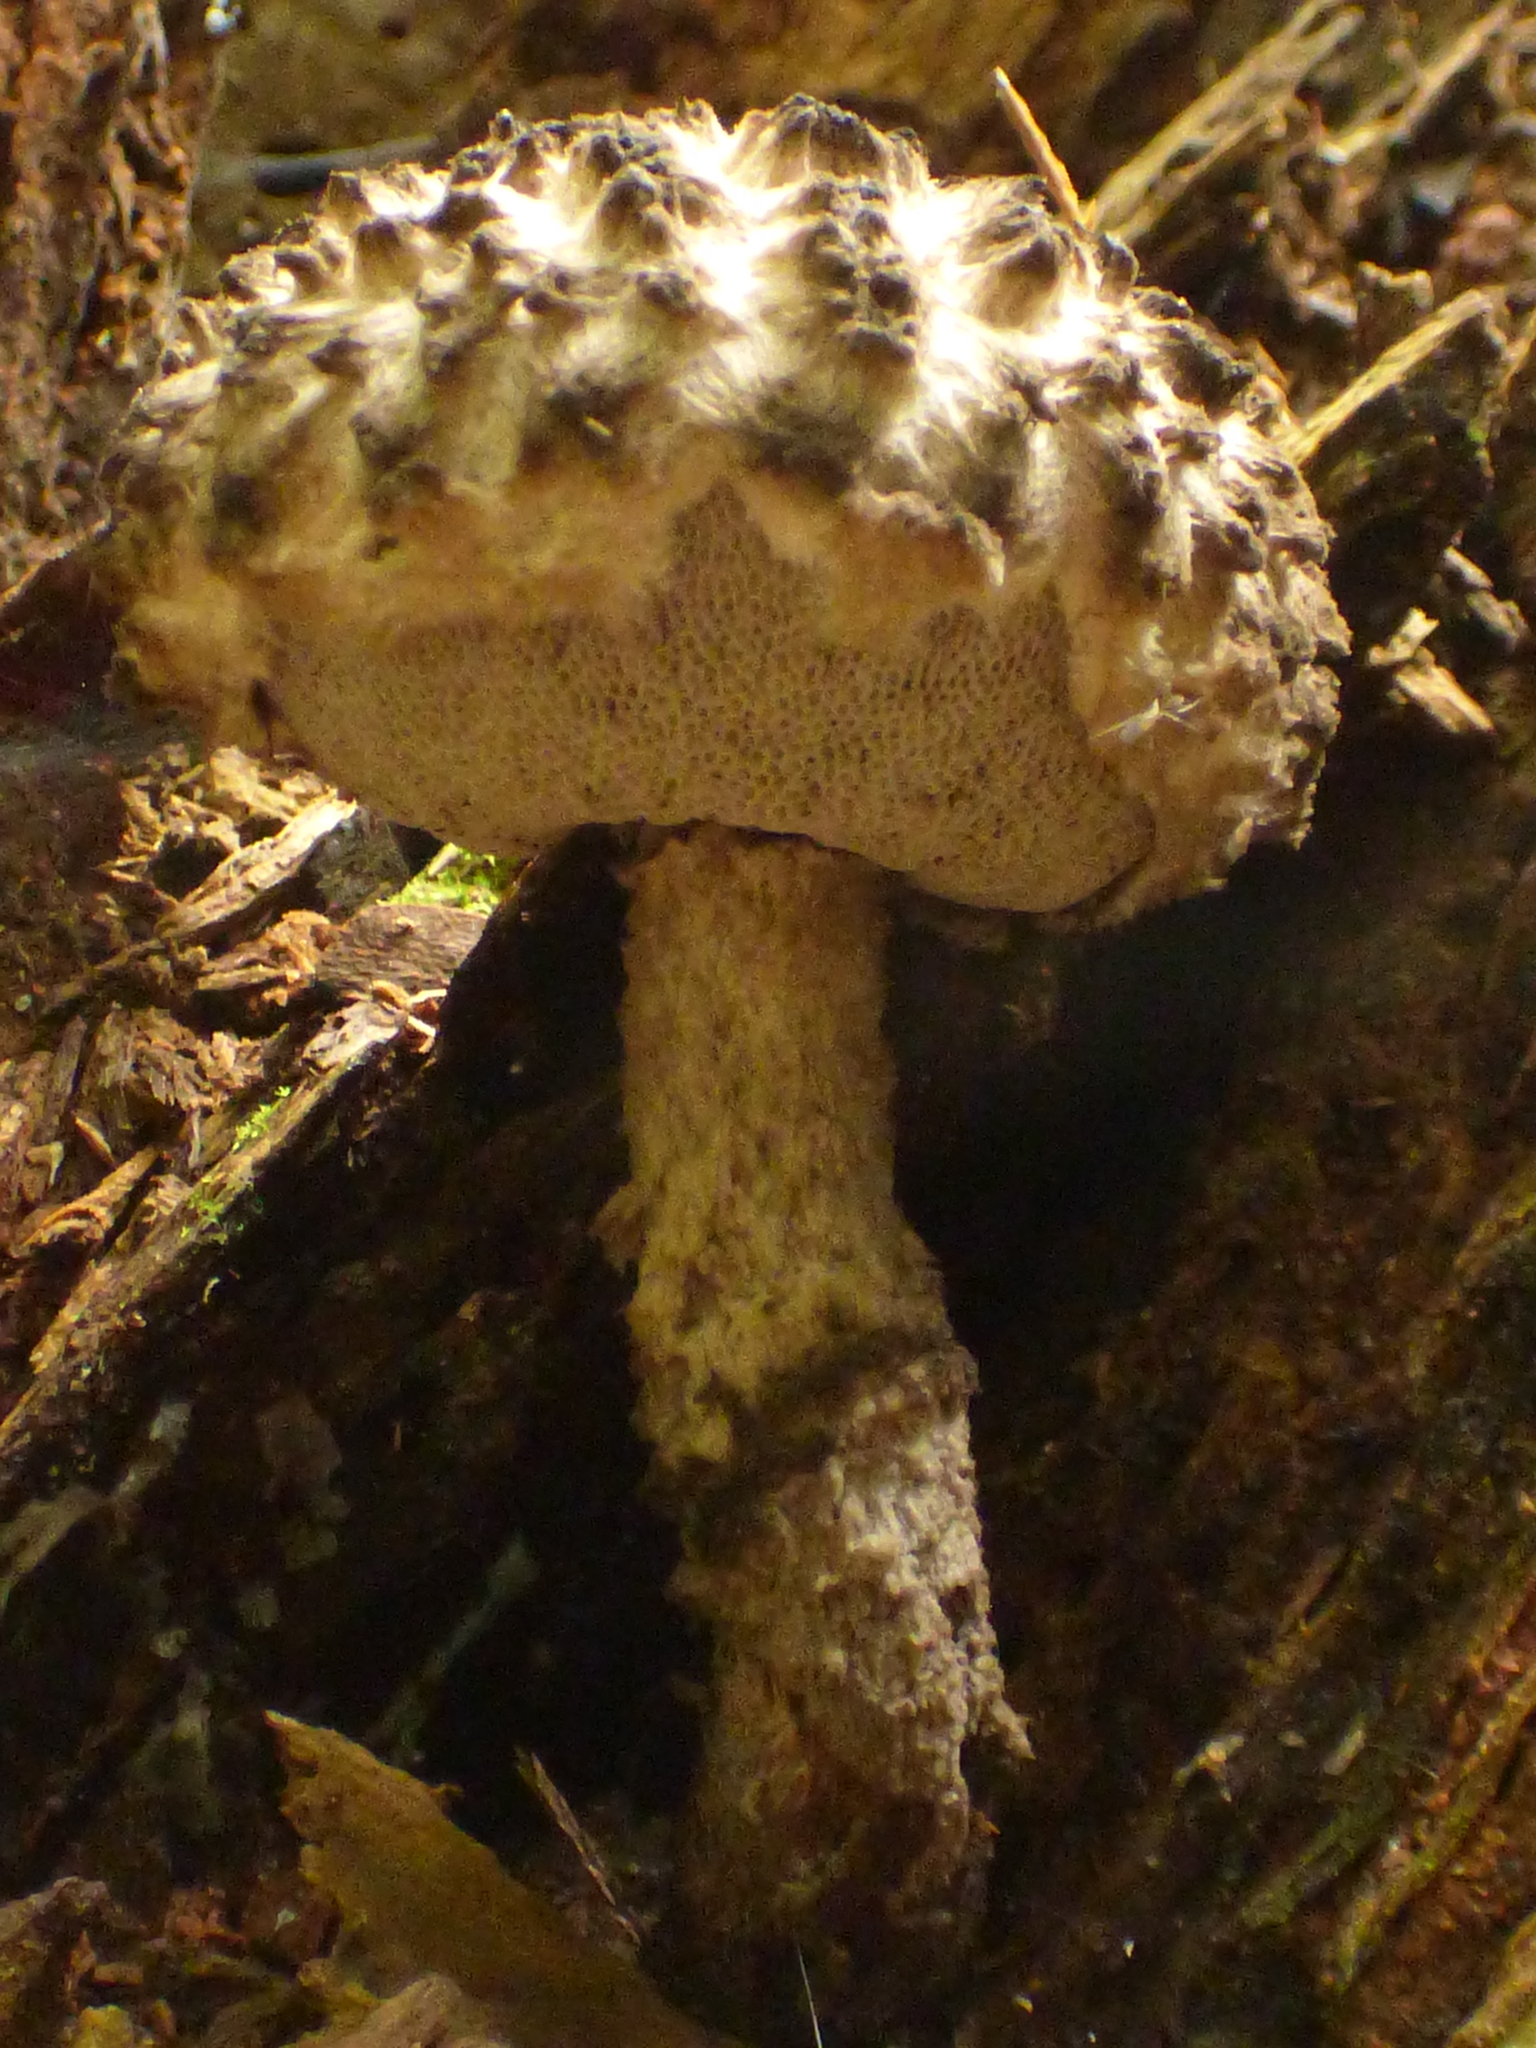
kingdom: Fungi
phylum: Basidiomycota
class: Agaricomycetes
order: Boletales
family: Boletaceae
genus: Strobilomyces
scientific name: Strobilomyces strobilaceus
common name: Old man of the woods
